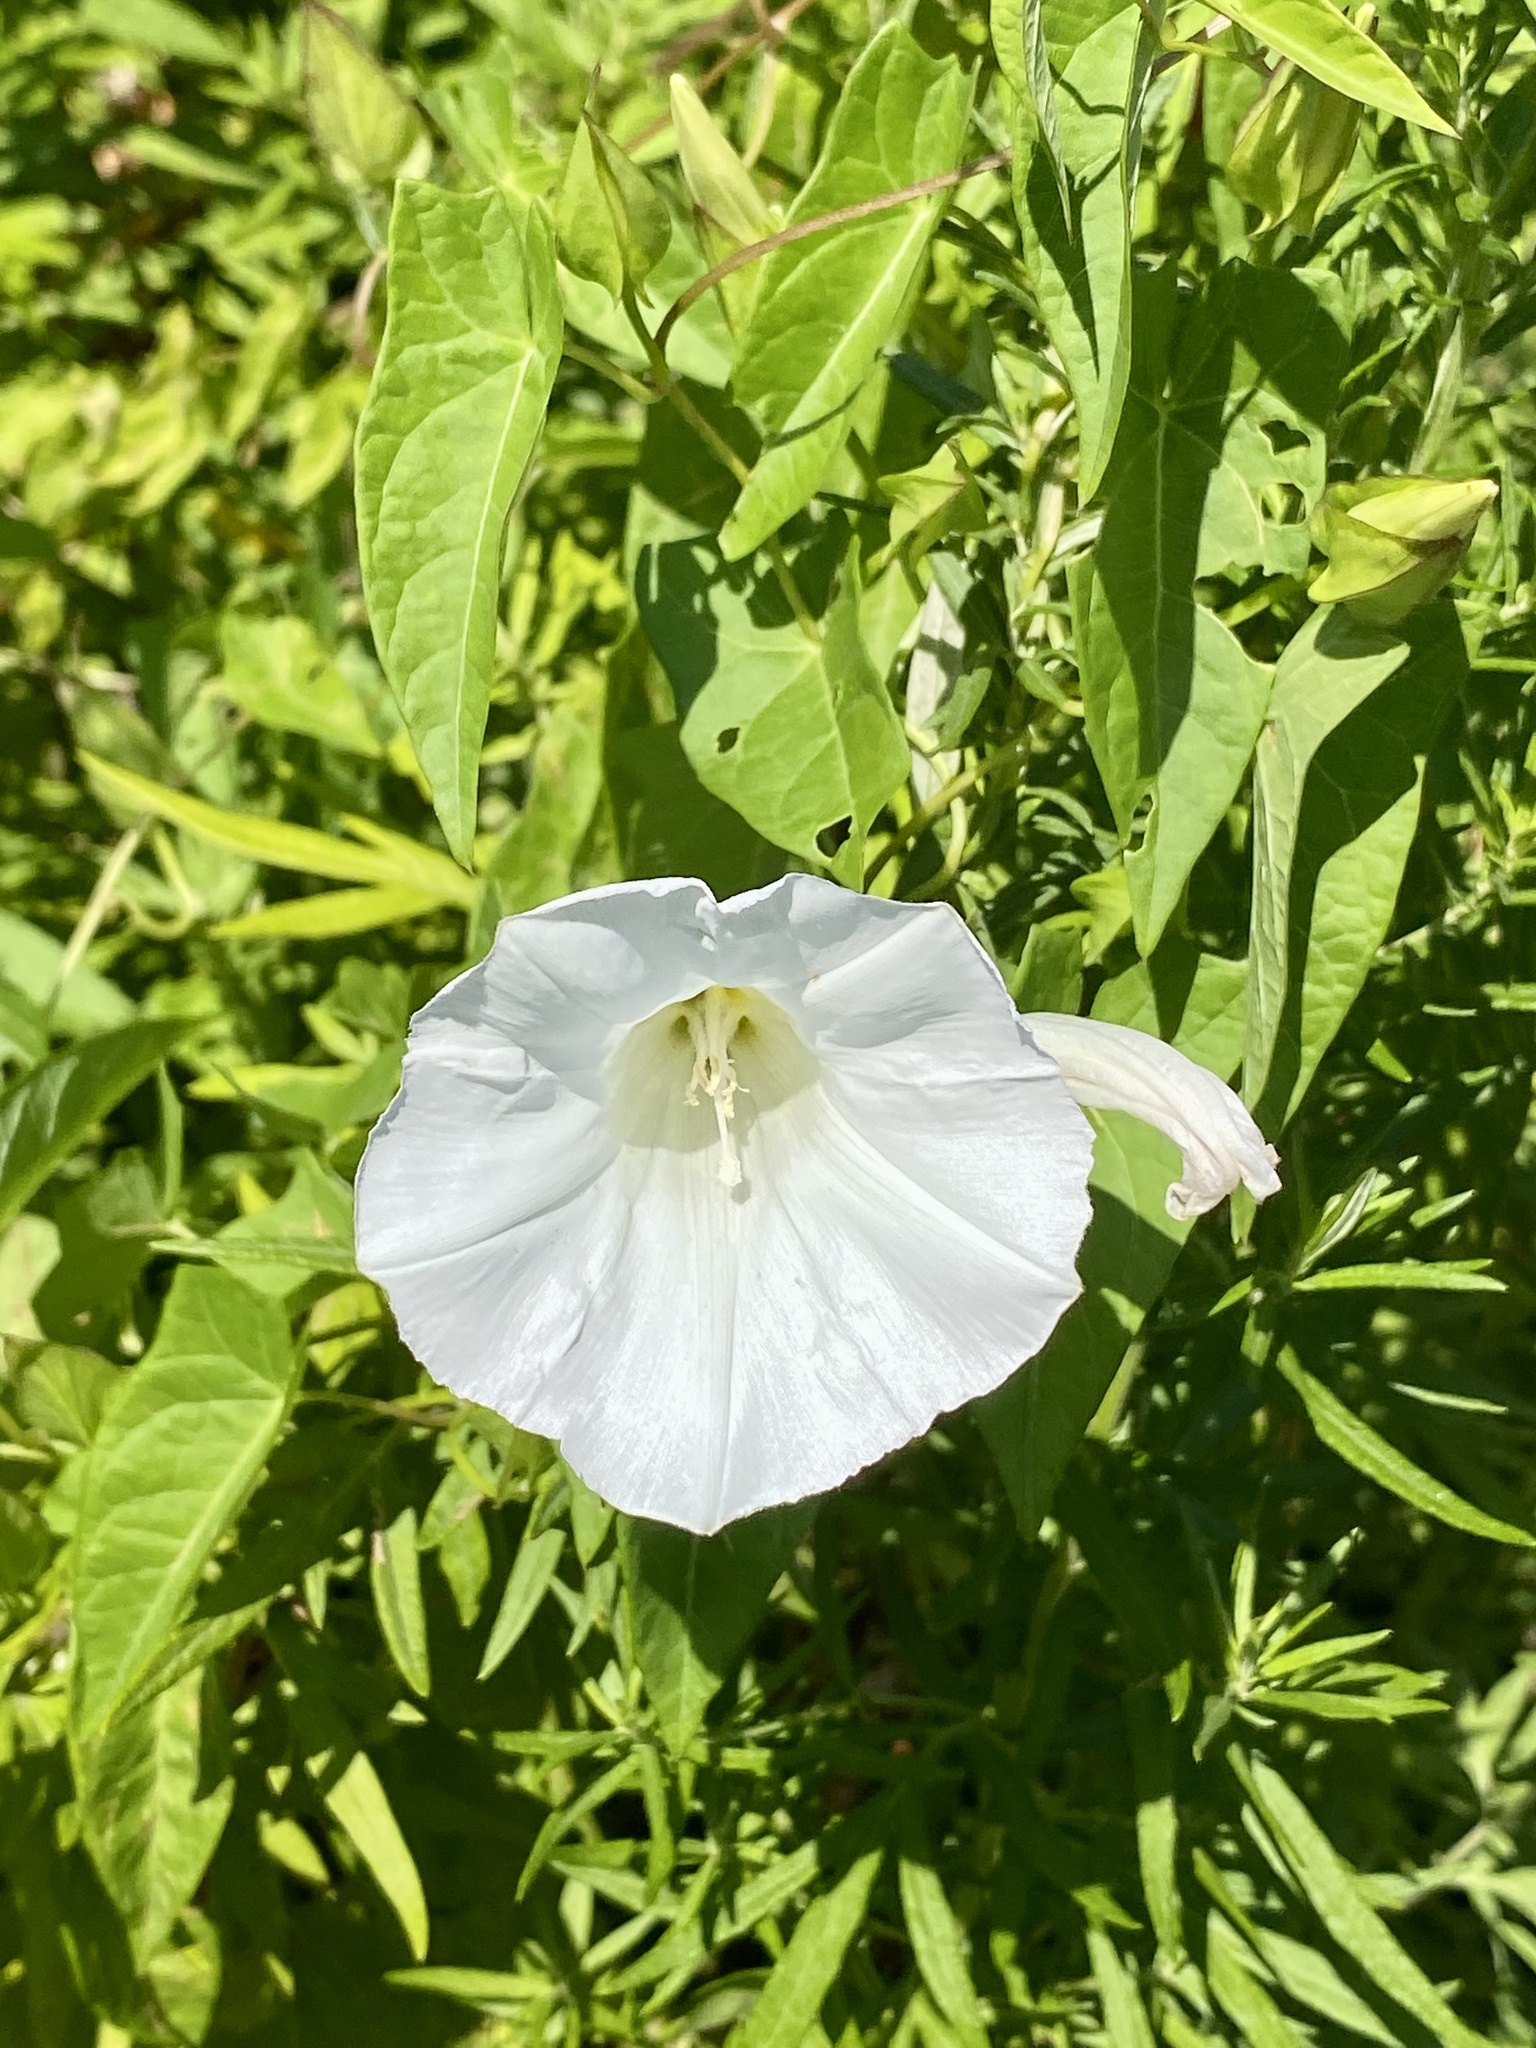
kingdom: Plantae
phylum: Tracheophyta
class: Magnoliopsida
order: Solanales
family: Convolvulaceae
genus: Calystegia
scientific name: Calystegia sepium
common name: Hedge bindweed
